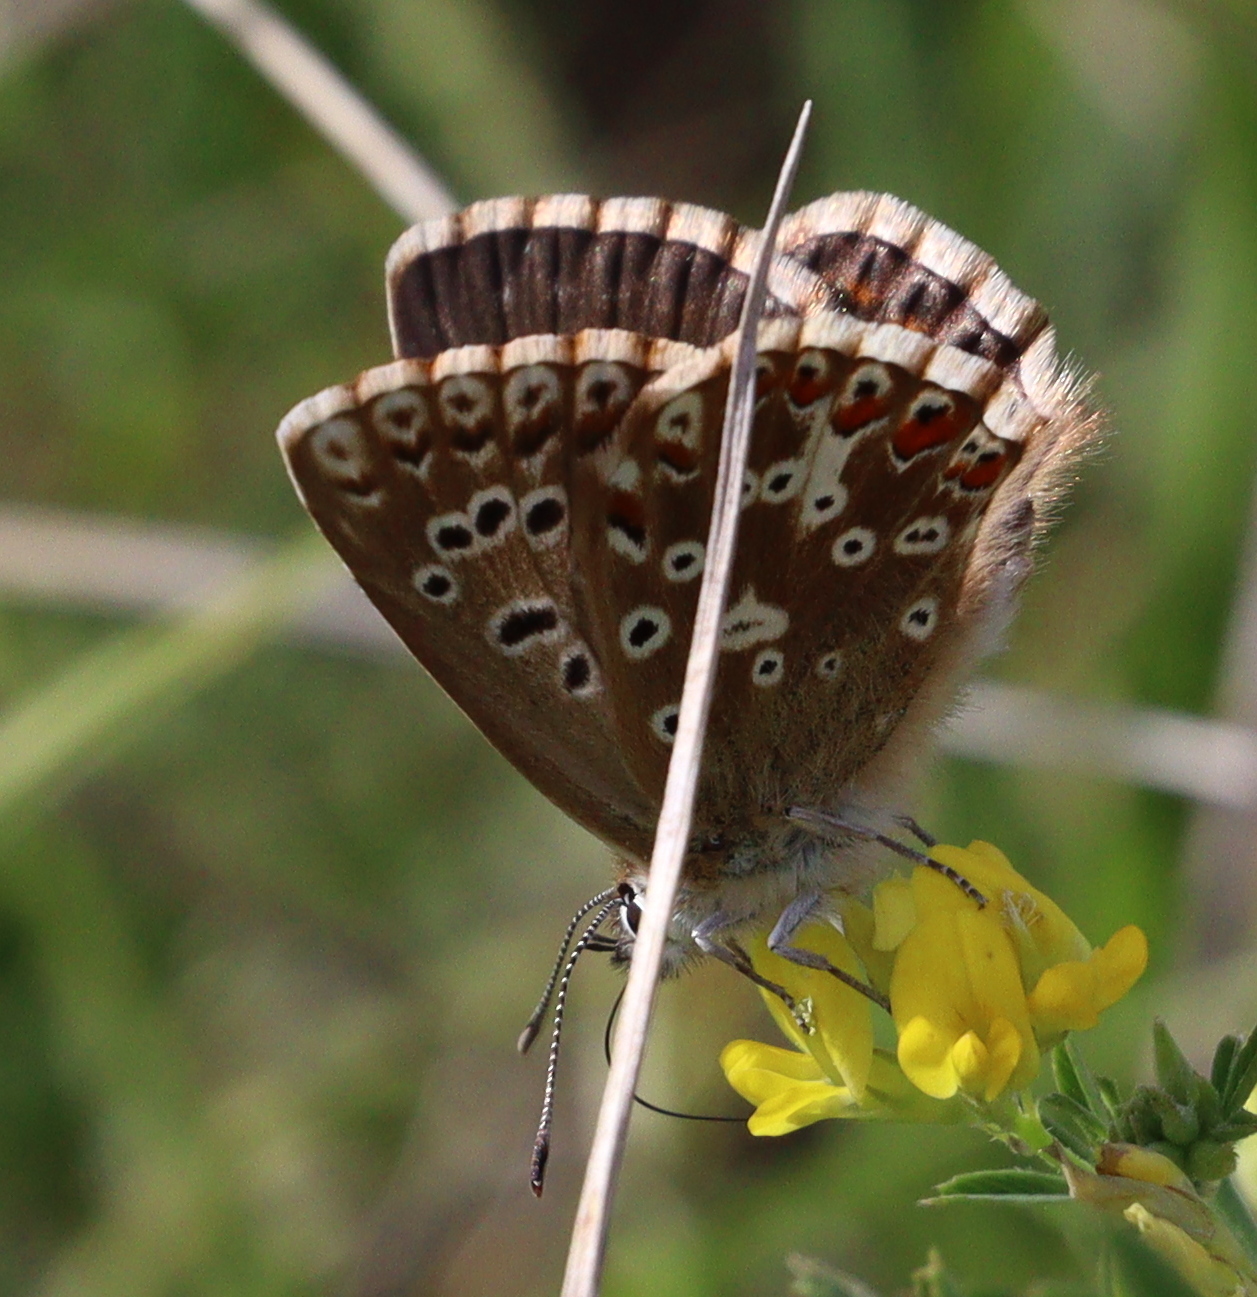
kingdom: Animalia
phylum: Arthropoda
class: Insecta
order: Lepidoptera
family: Lycaenidae
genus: Lysandra
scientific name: Lysandra coridon
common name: Chalkhill blue
